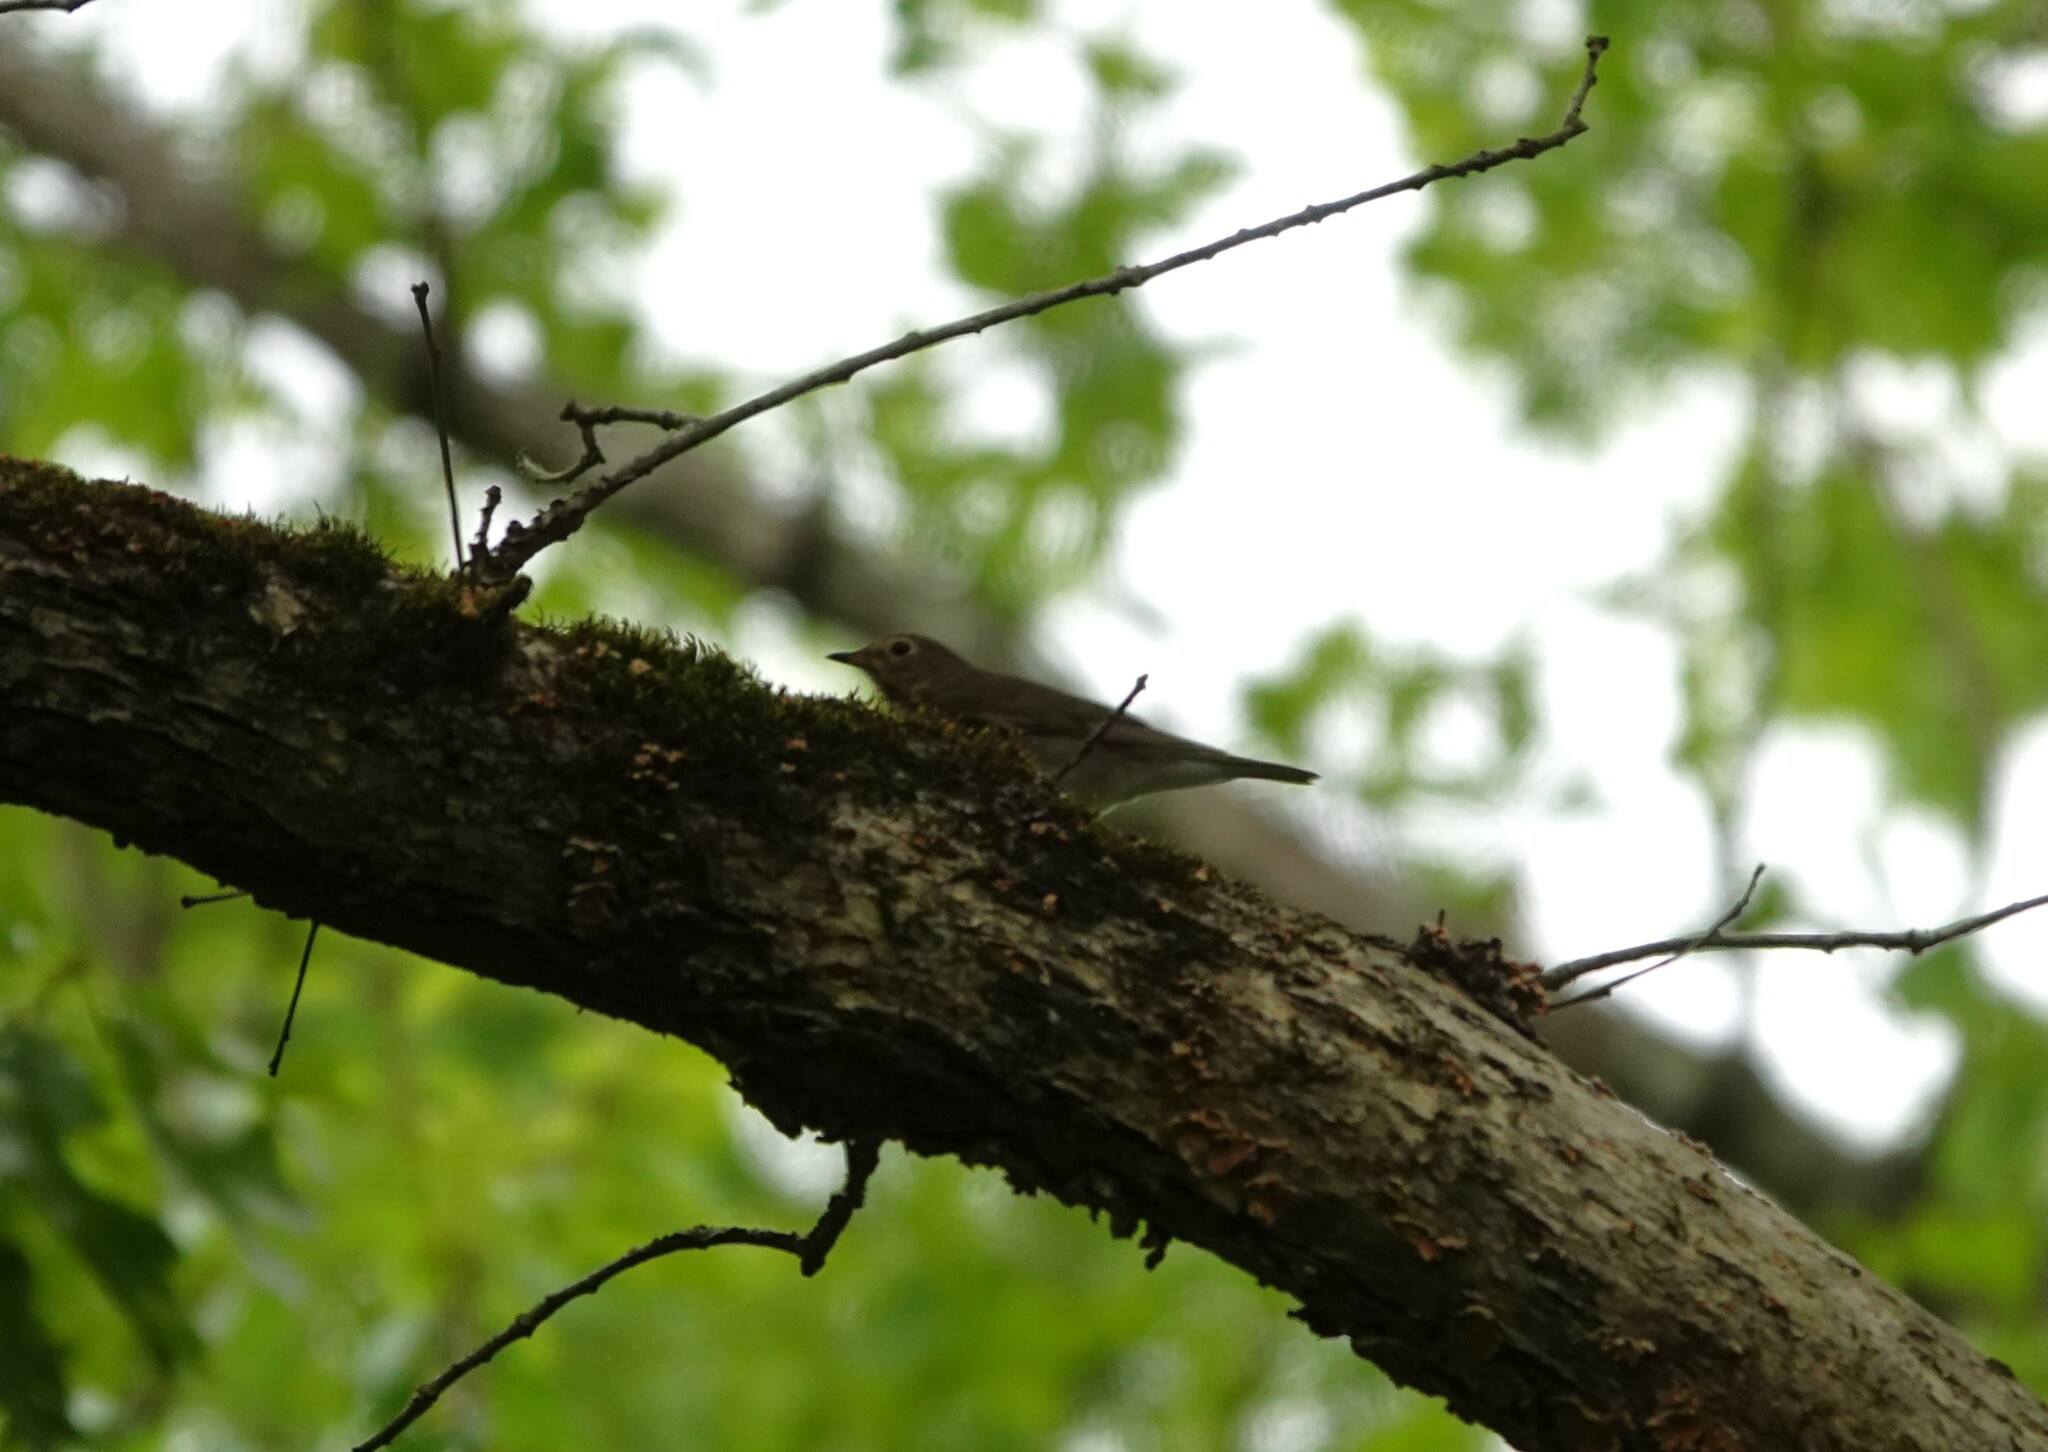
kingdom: Animalia
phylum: Chordata
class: Aves
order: Passeriformes
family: Turdidae
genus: Catharus
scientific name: Catharus ustulatus
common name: Swainson's thrush
